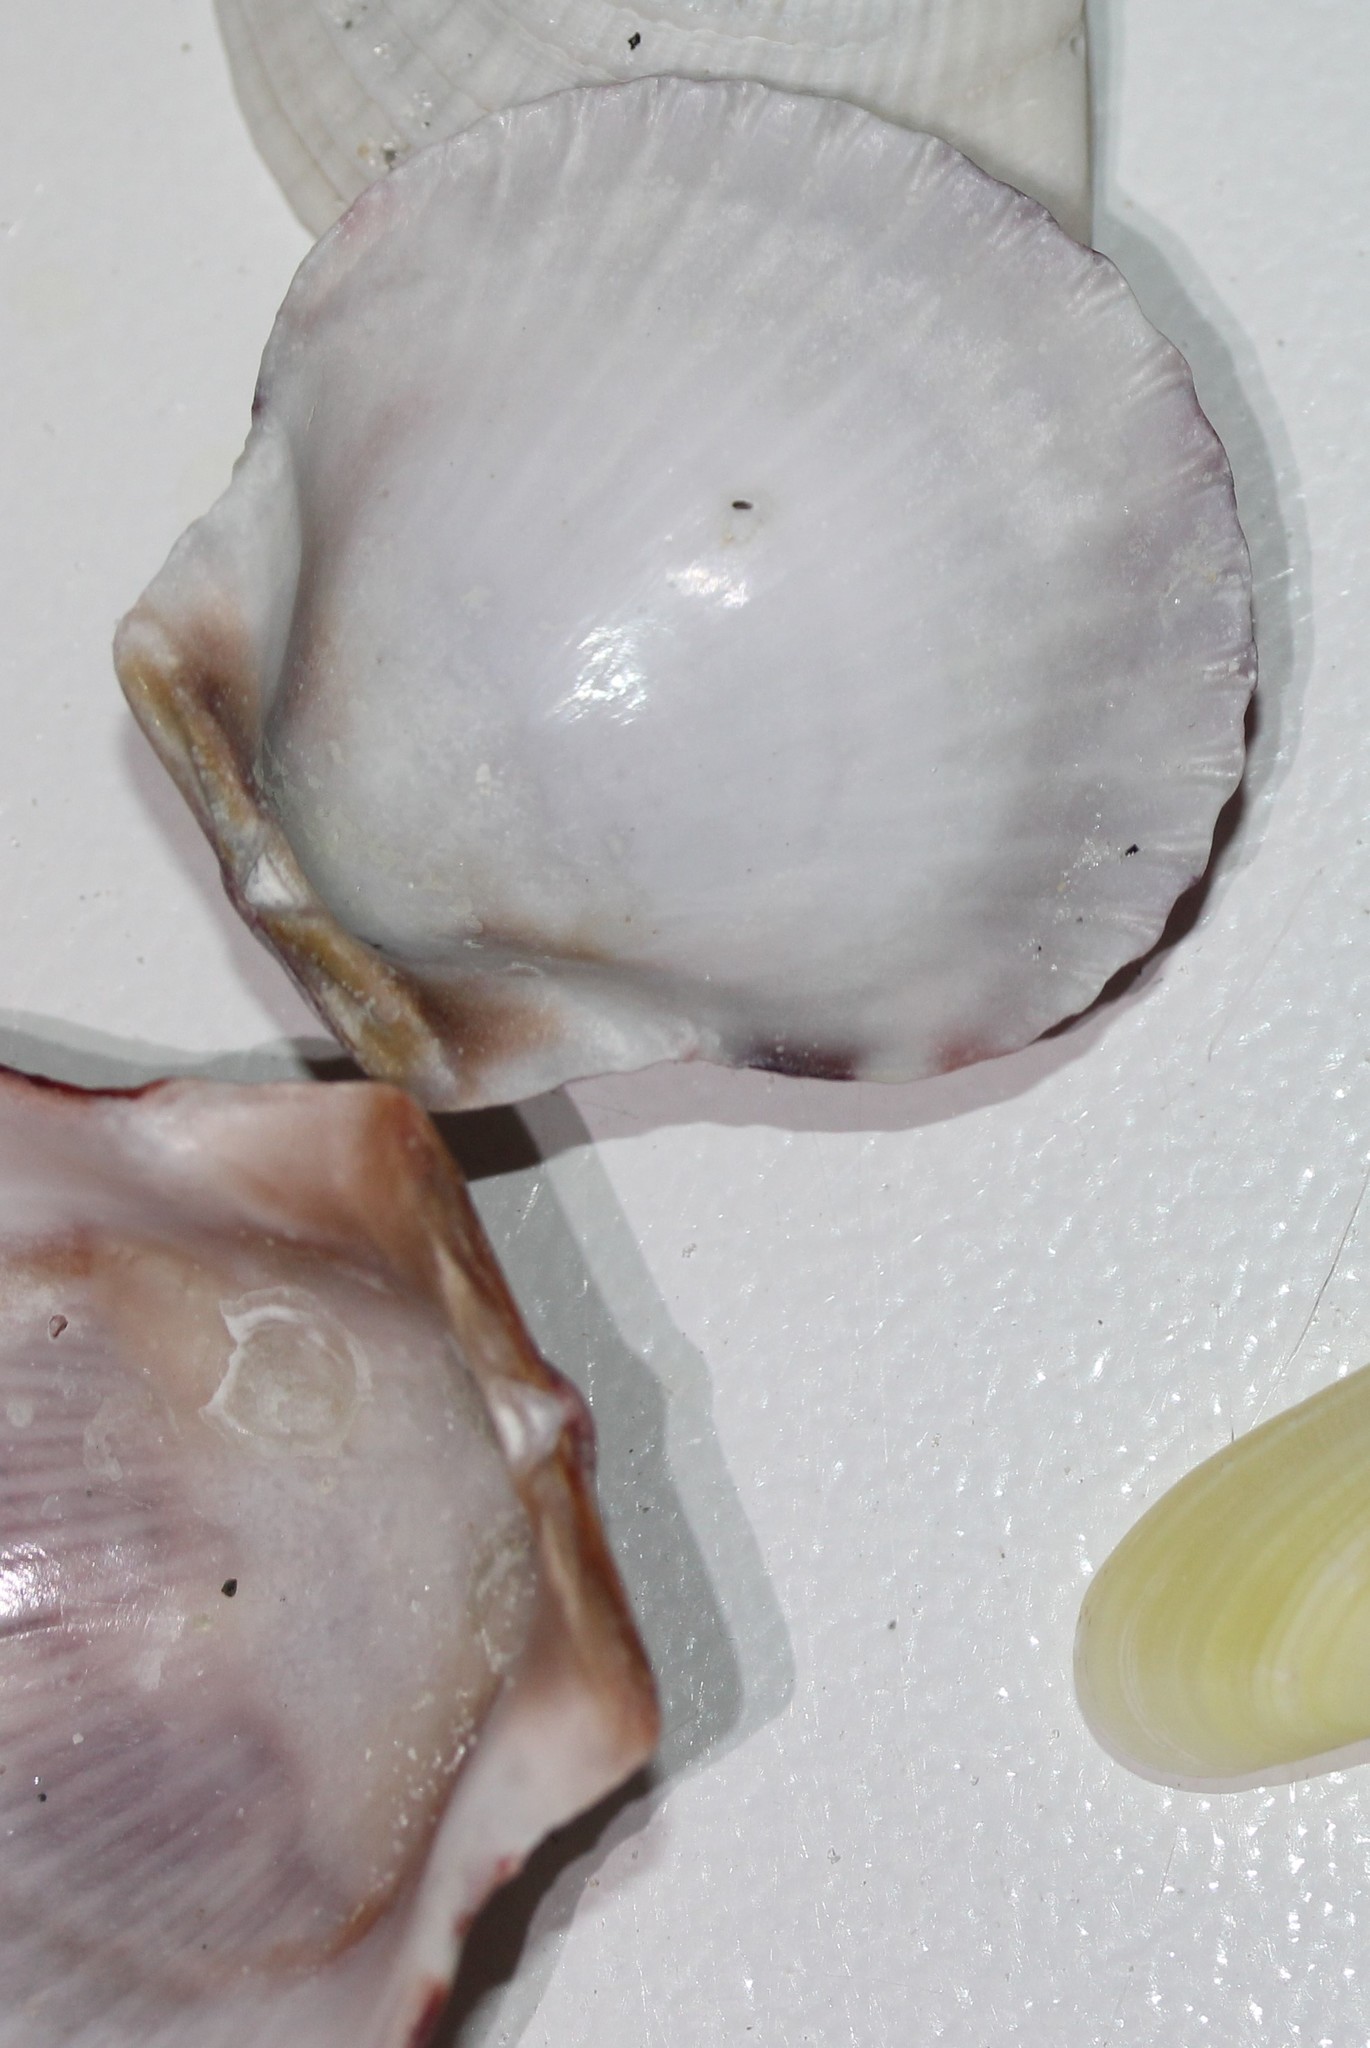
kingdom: Animalia
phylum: Mollusca
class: Bivalvia
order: Pectinida
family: Pectinidae
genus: Argopecten
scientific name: Argopecten gibbus
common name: Atlantic calico scallop
